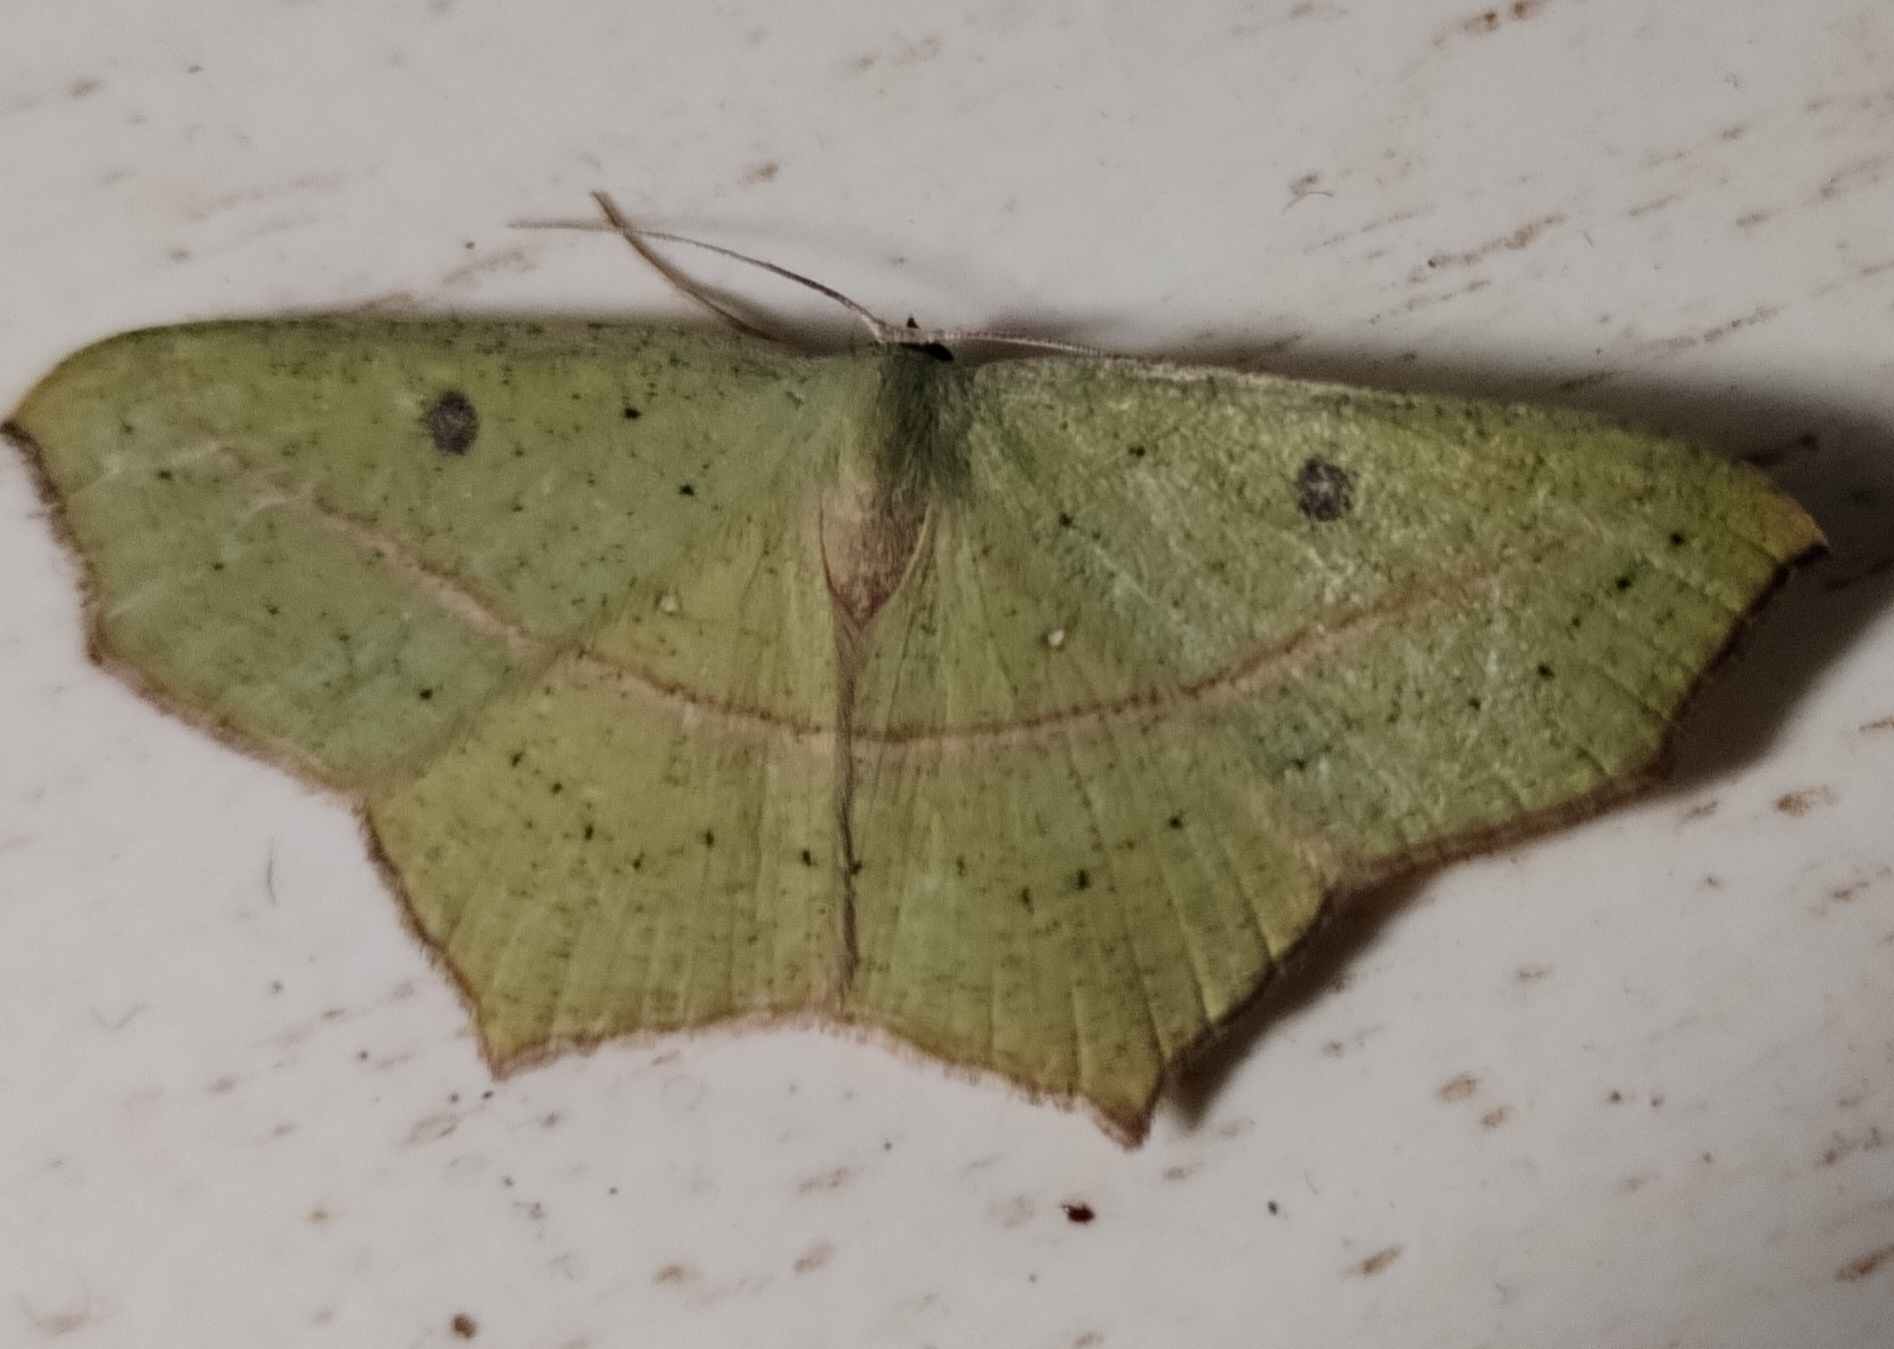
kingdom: Animalia
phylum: Arthropoda
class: Insecta
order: Lepidoptera
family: Geometridae
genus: Traminda
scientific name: Traminda neptunaria
